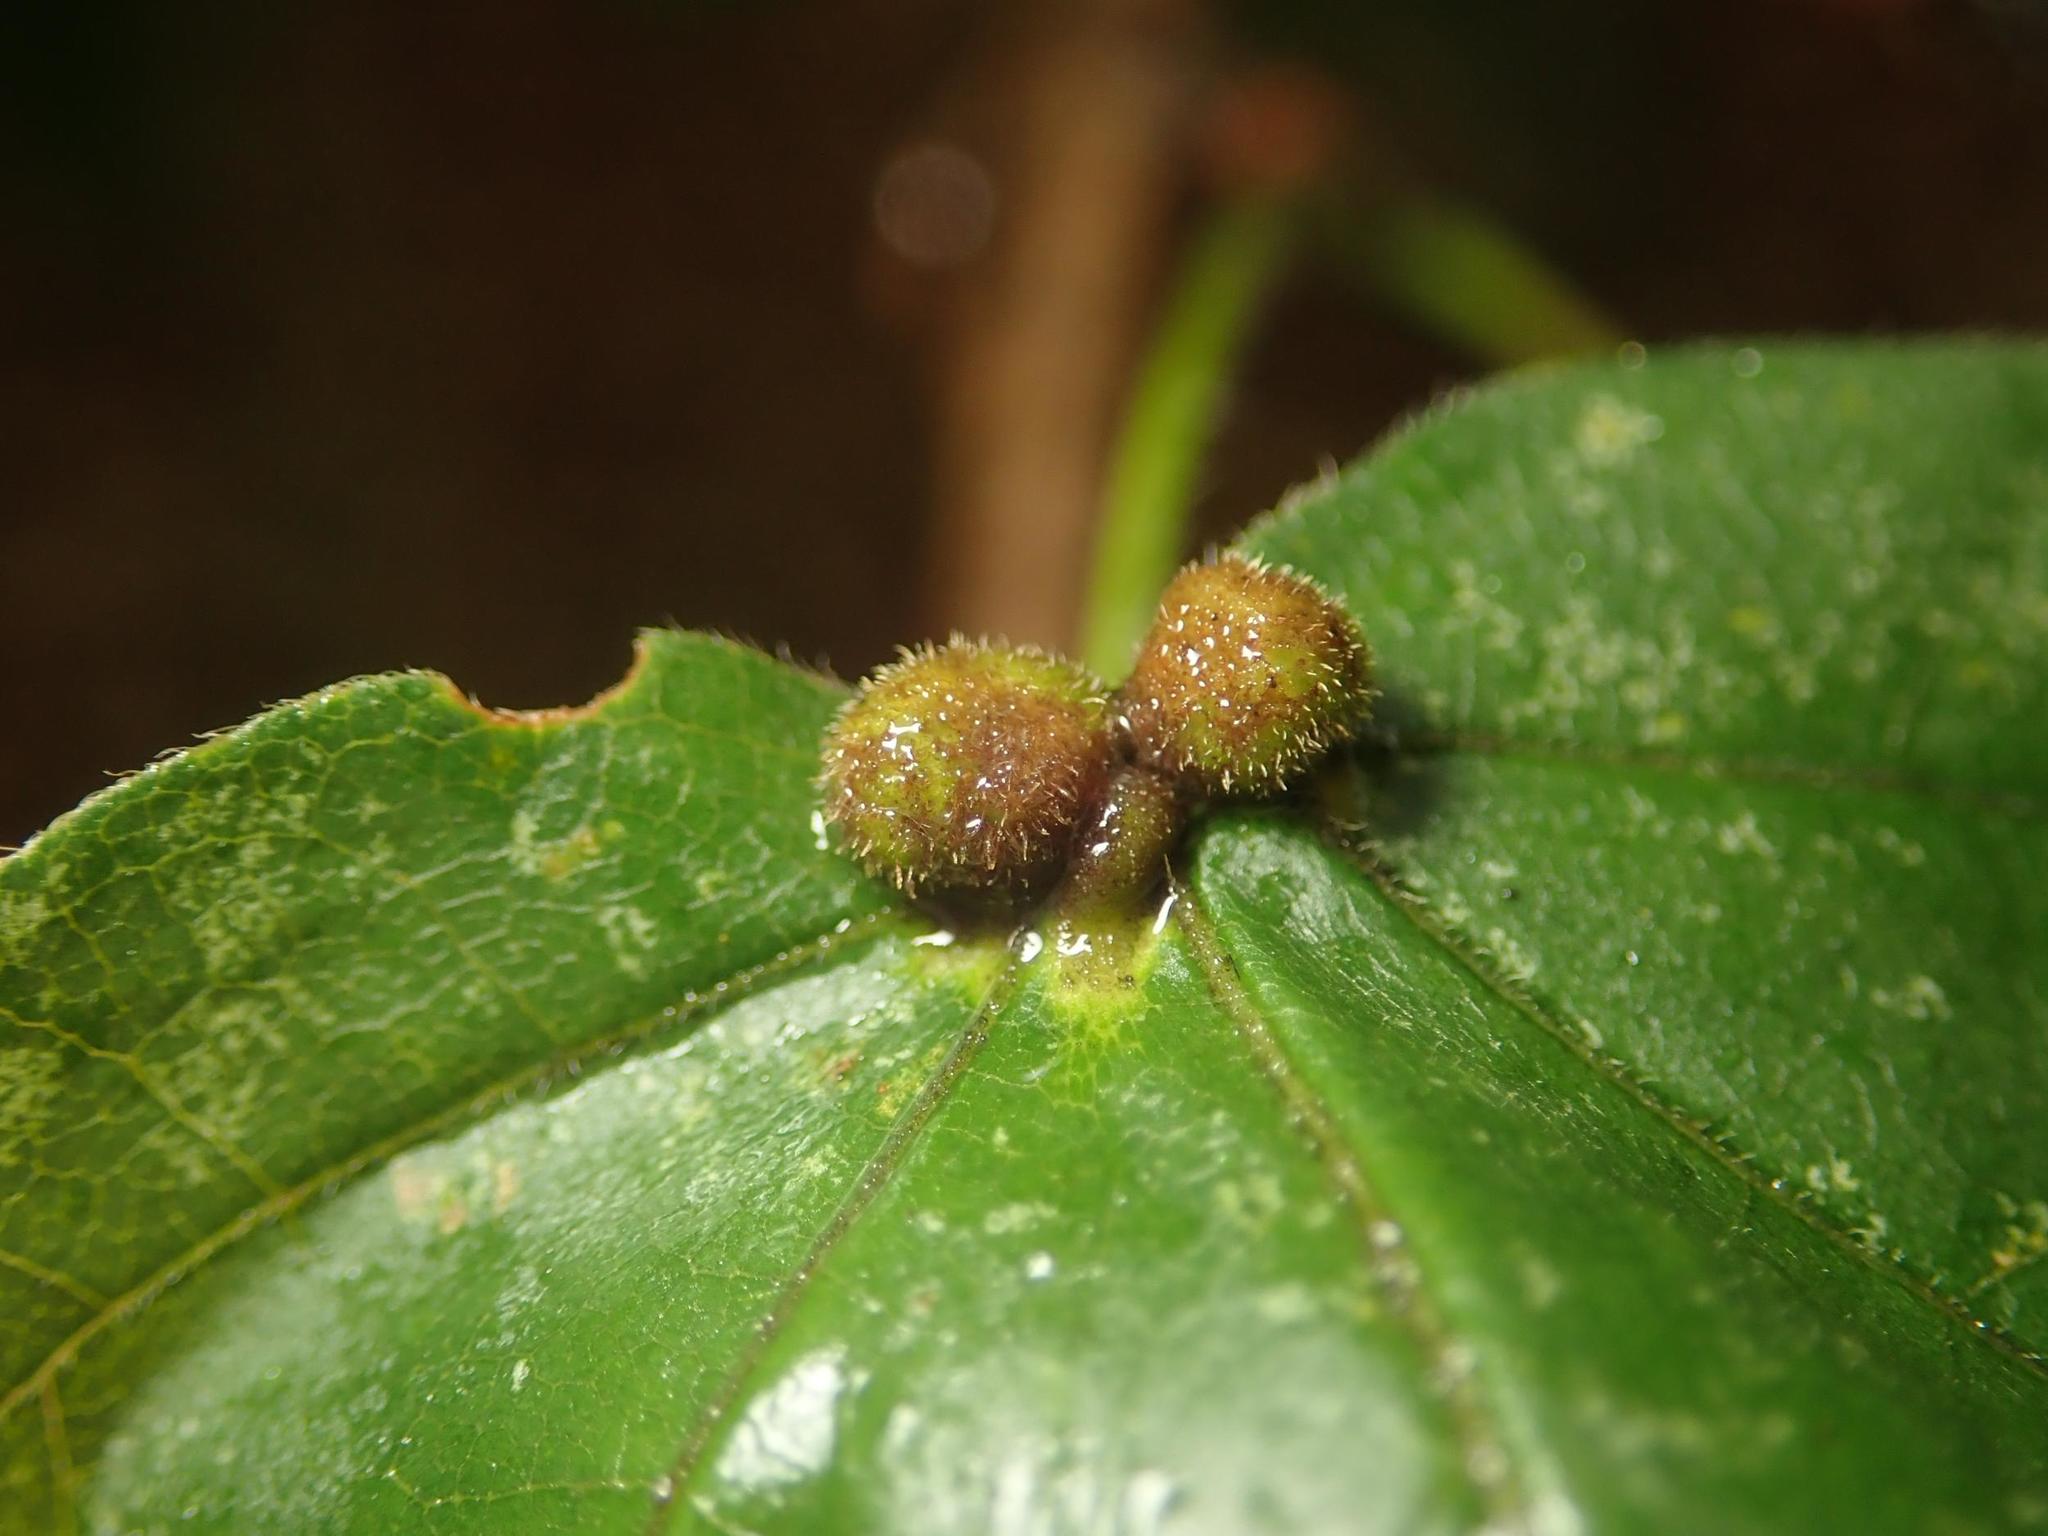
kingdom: Animalia
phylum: Arthropoda
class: Arachnida
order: Trombidiformes
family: Eriophyidae
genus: Aceria
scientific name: Aceria macrochelus
